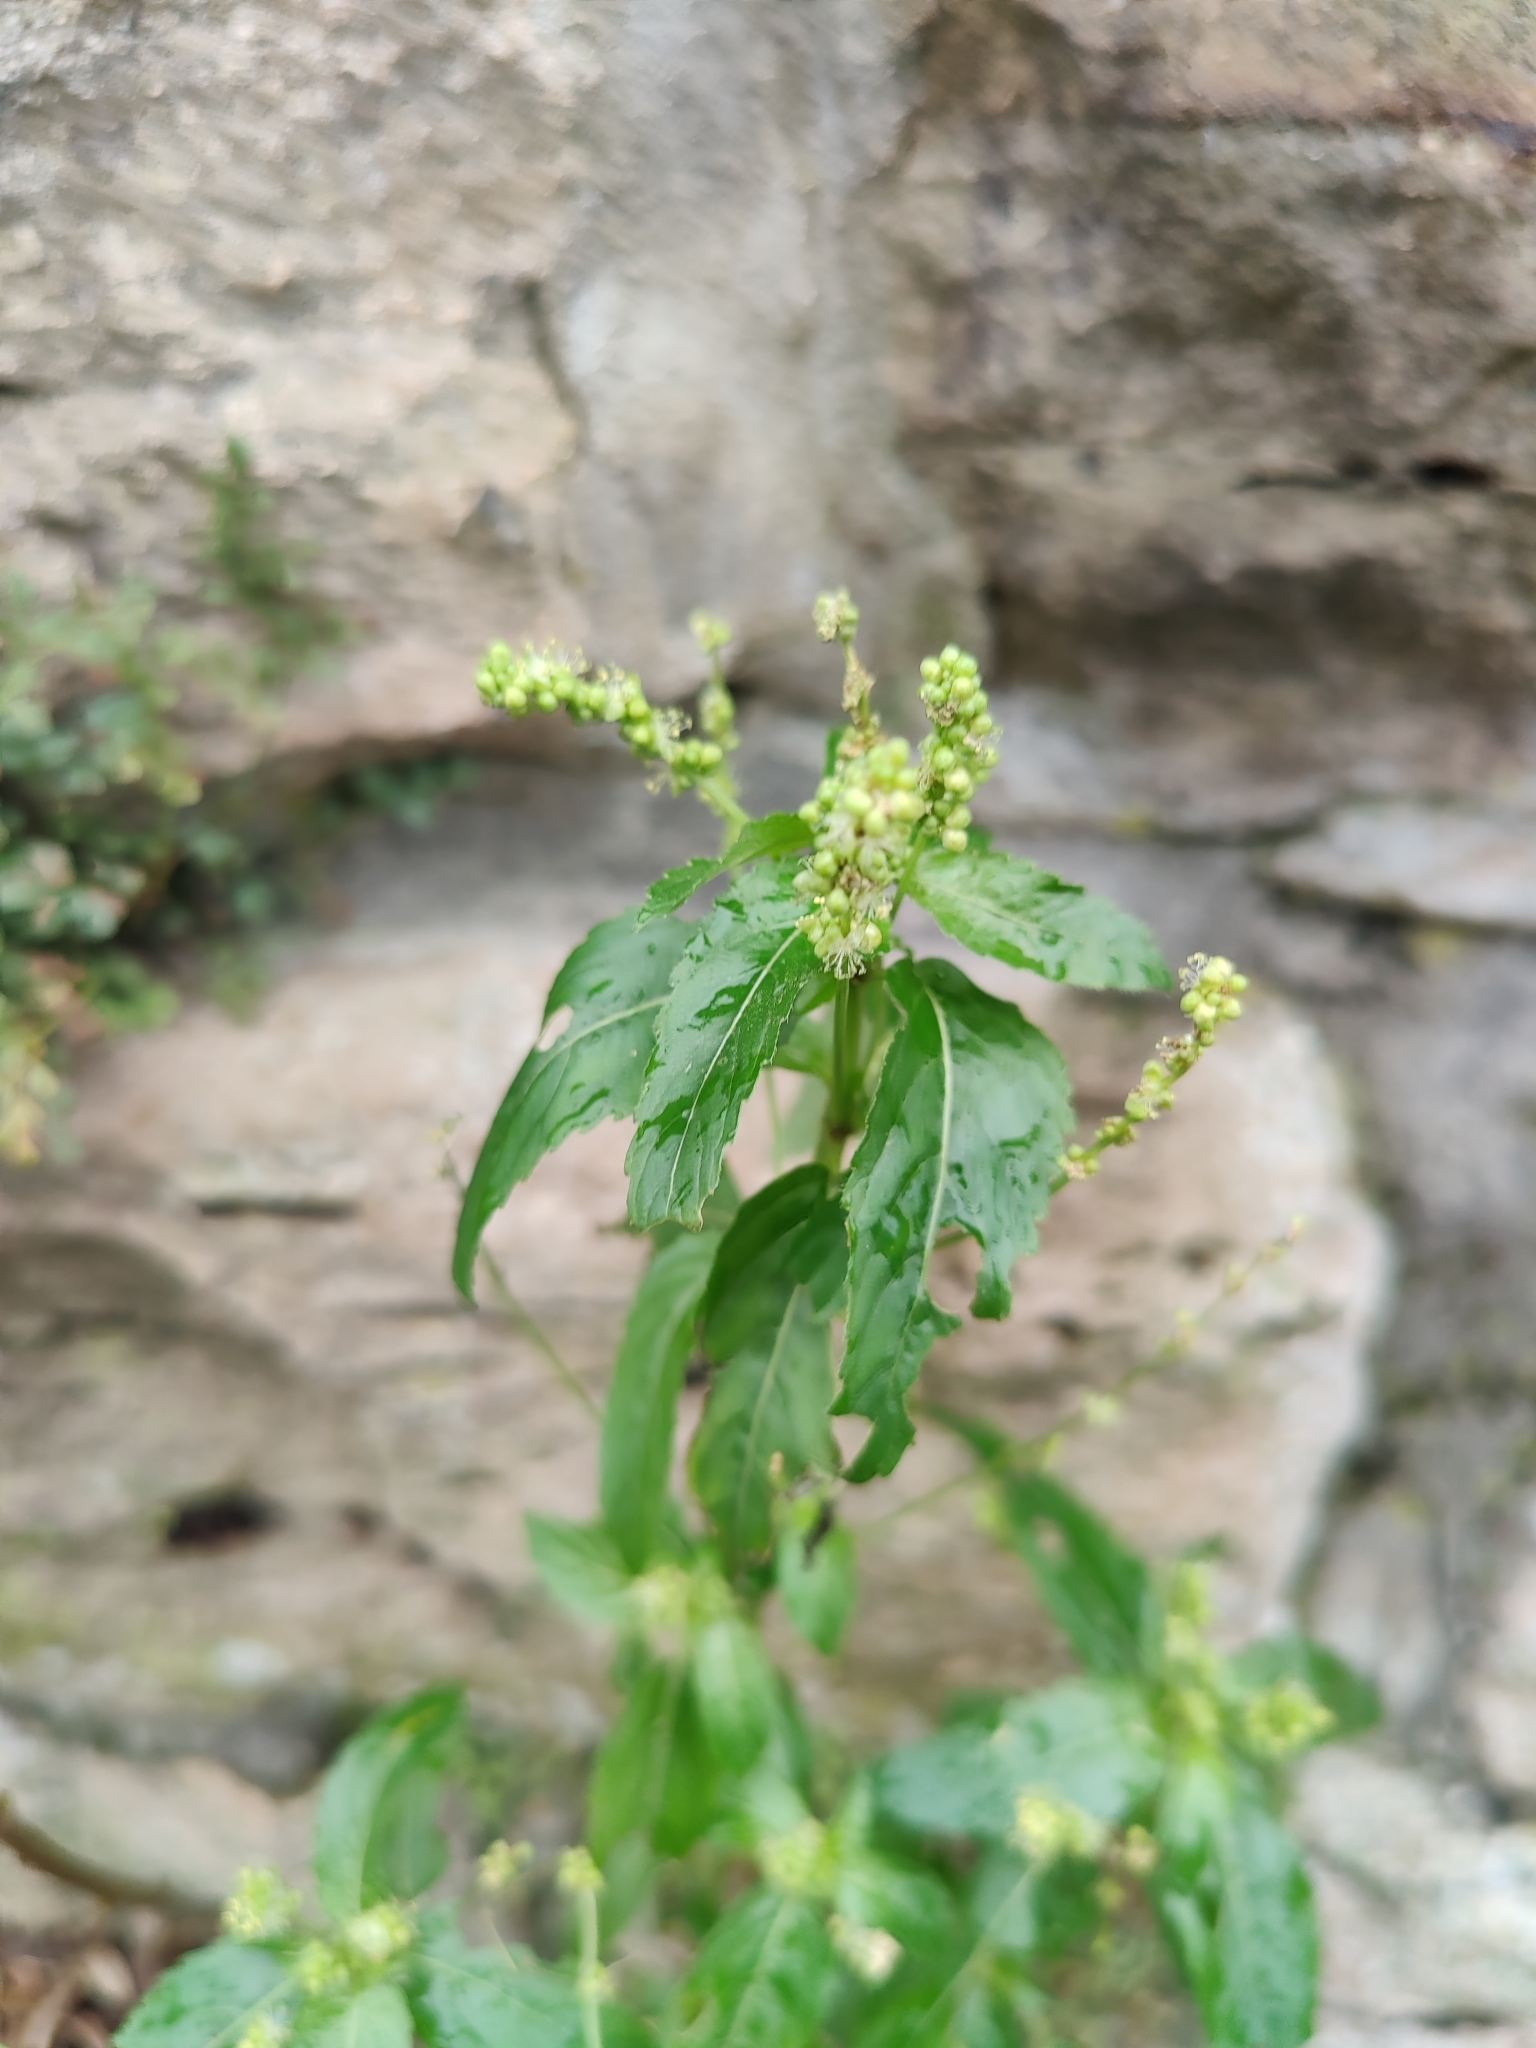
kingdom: Plantae
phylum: Tracheophyta
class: Magnoliopsida
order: Malpighiales
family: Euphorbiaceae
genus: Mercurialis
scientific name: Mercurialis annua
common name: Annual mercury
